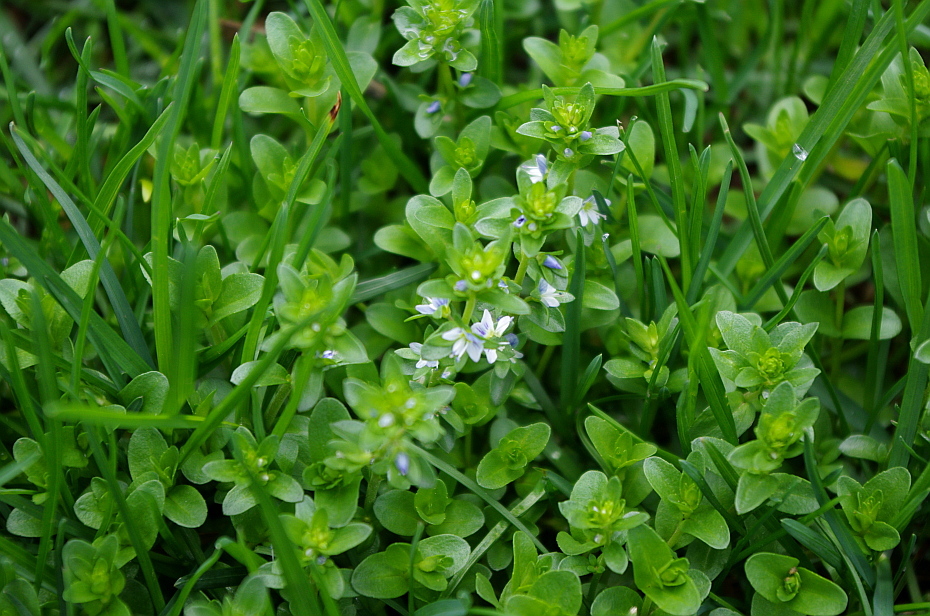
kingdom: Plantae
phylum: Tracheophyta
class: Magnoliopsida
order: Lamiales
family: Plantaginaceae
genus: Veronica
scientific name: Veronica serpyllifolia
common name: Thyme-leaved speedwell
